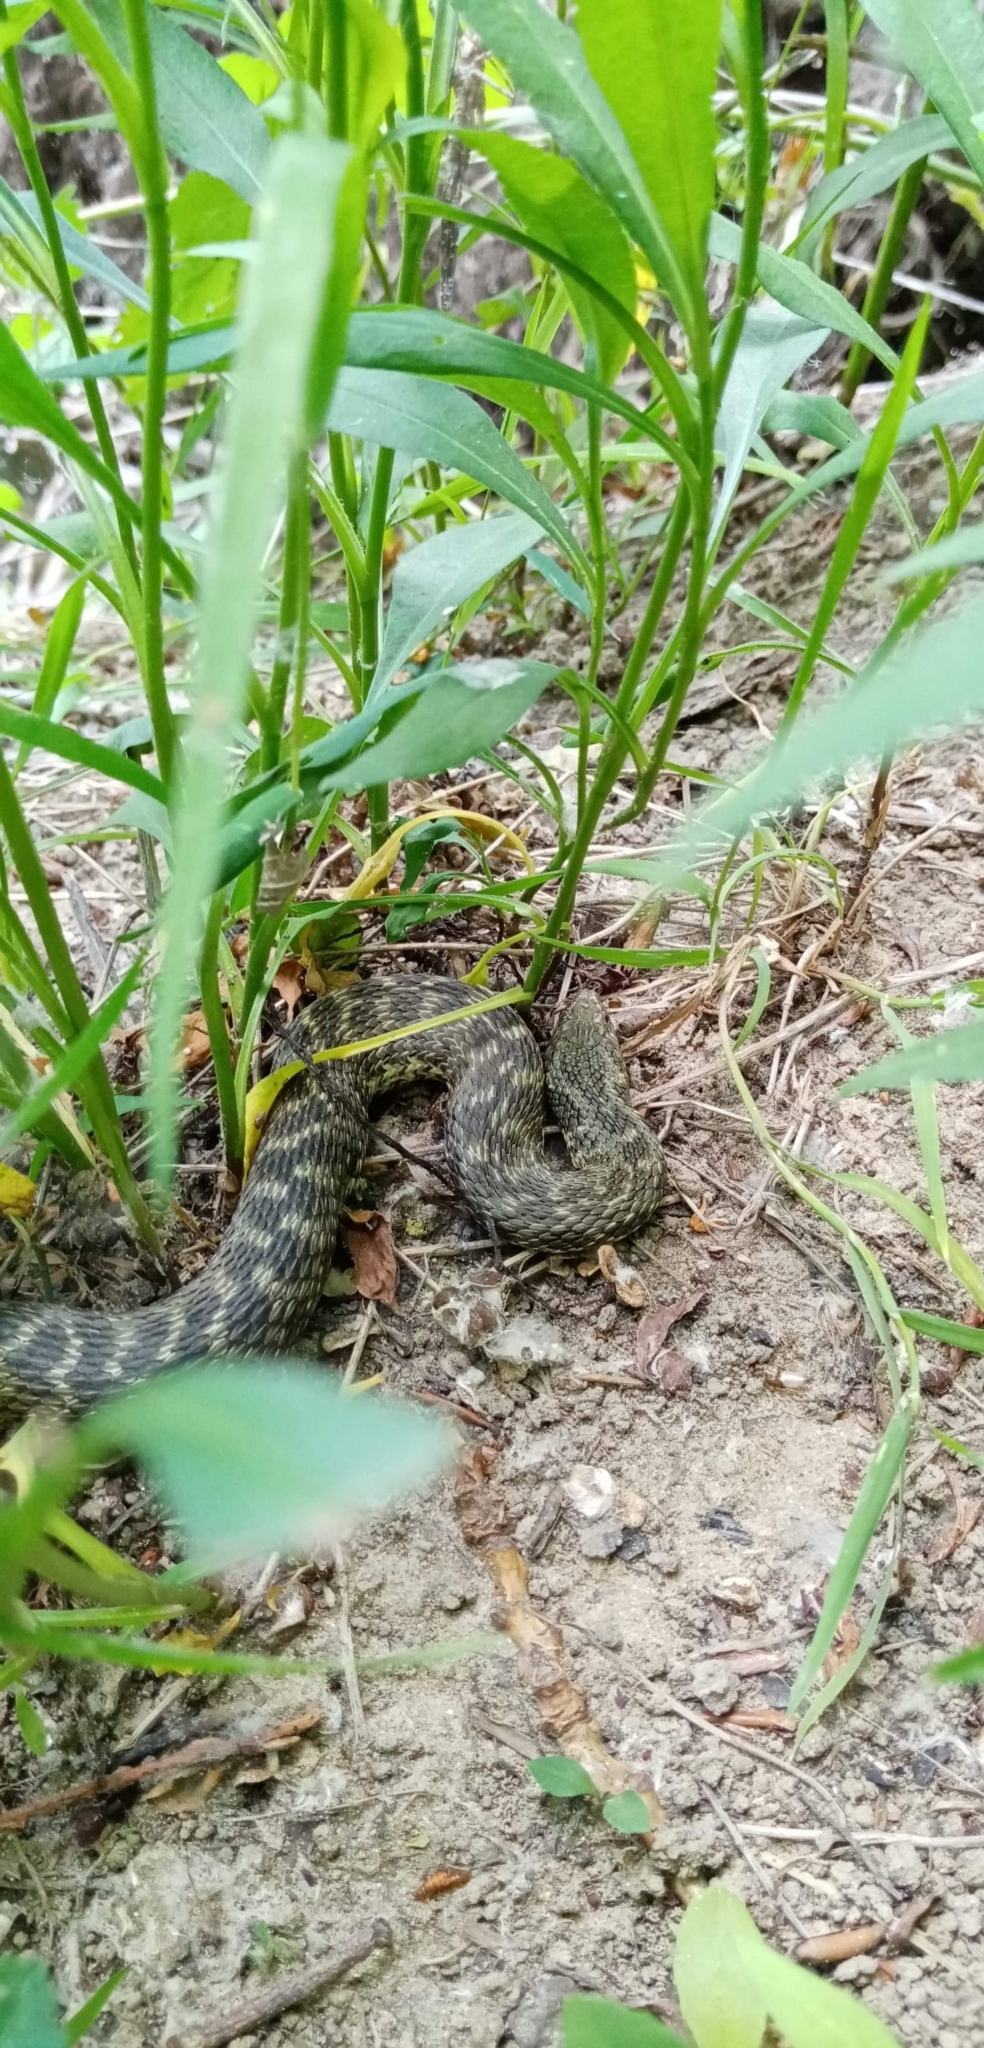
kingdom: Animalia
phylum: Chordata
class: Squamata
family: Colubridae
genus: Natrix
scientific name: Natrix maura
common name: Viperine water snake
